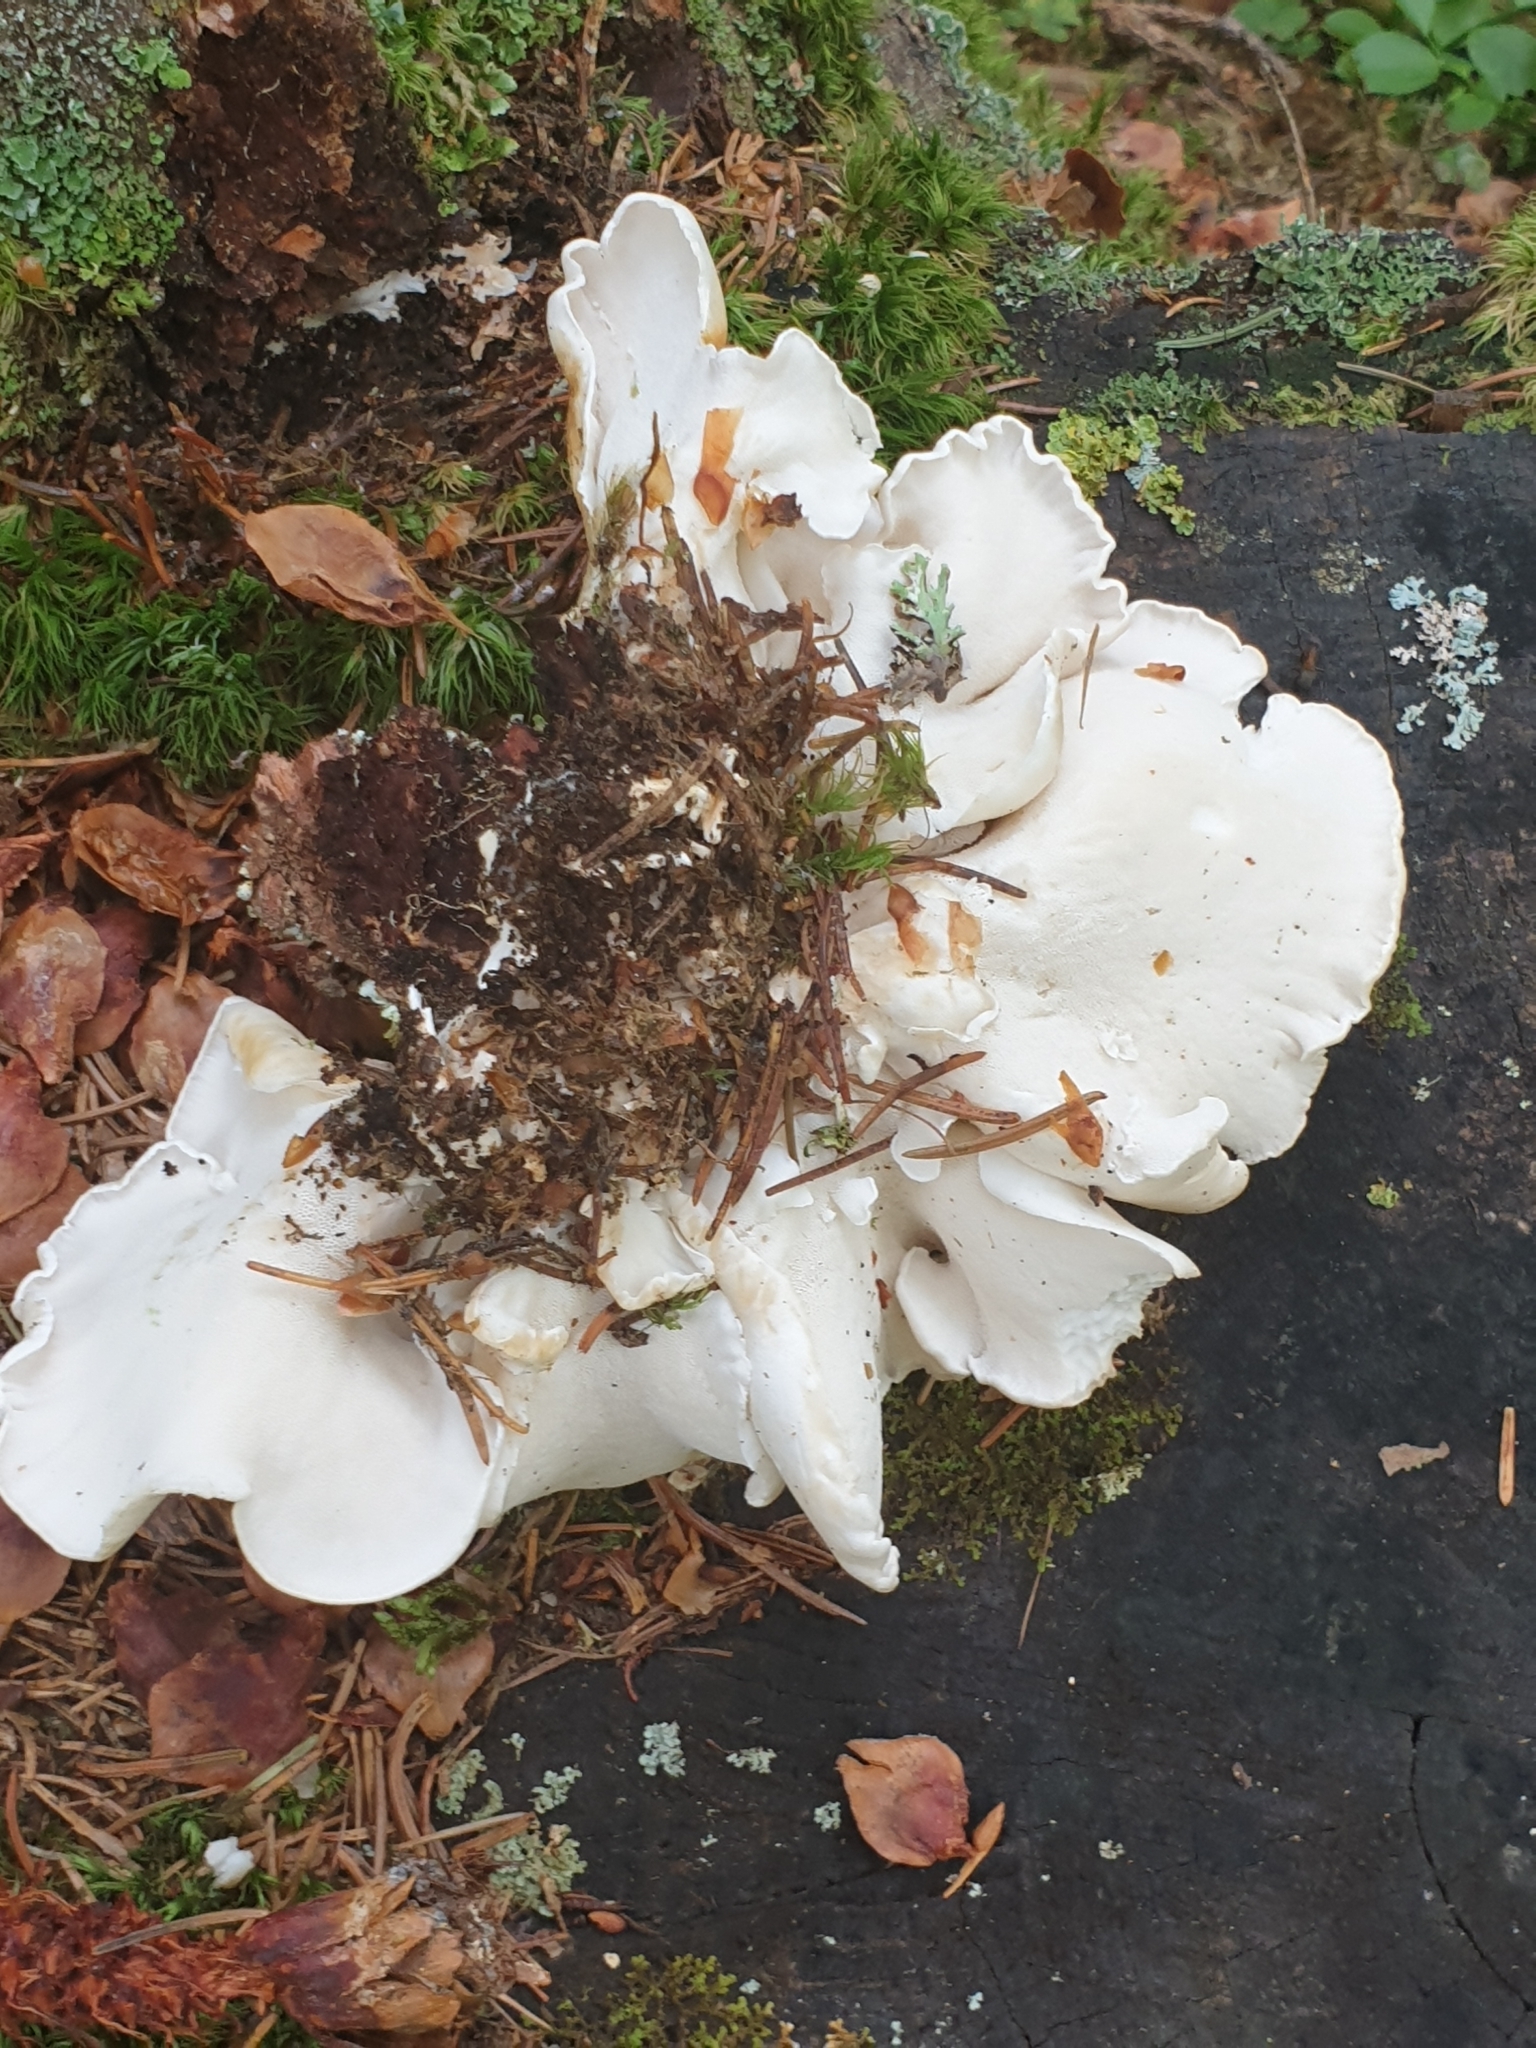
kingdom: Fungi
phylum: Basidiomycota
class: Agaricomycetes
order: Polyporales
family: Incrustoporiaceae
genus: Tyromyces
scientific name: Tyromyces chioneus
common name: White cheese polypore
